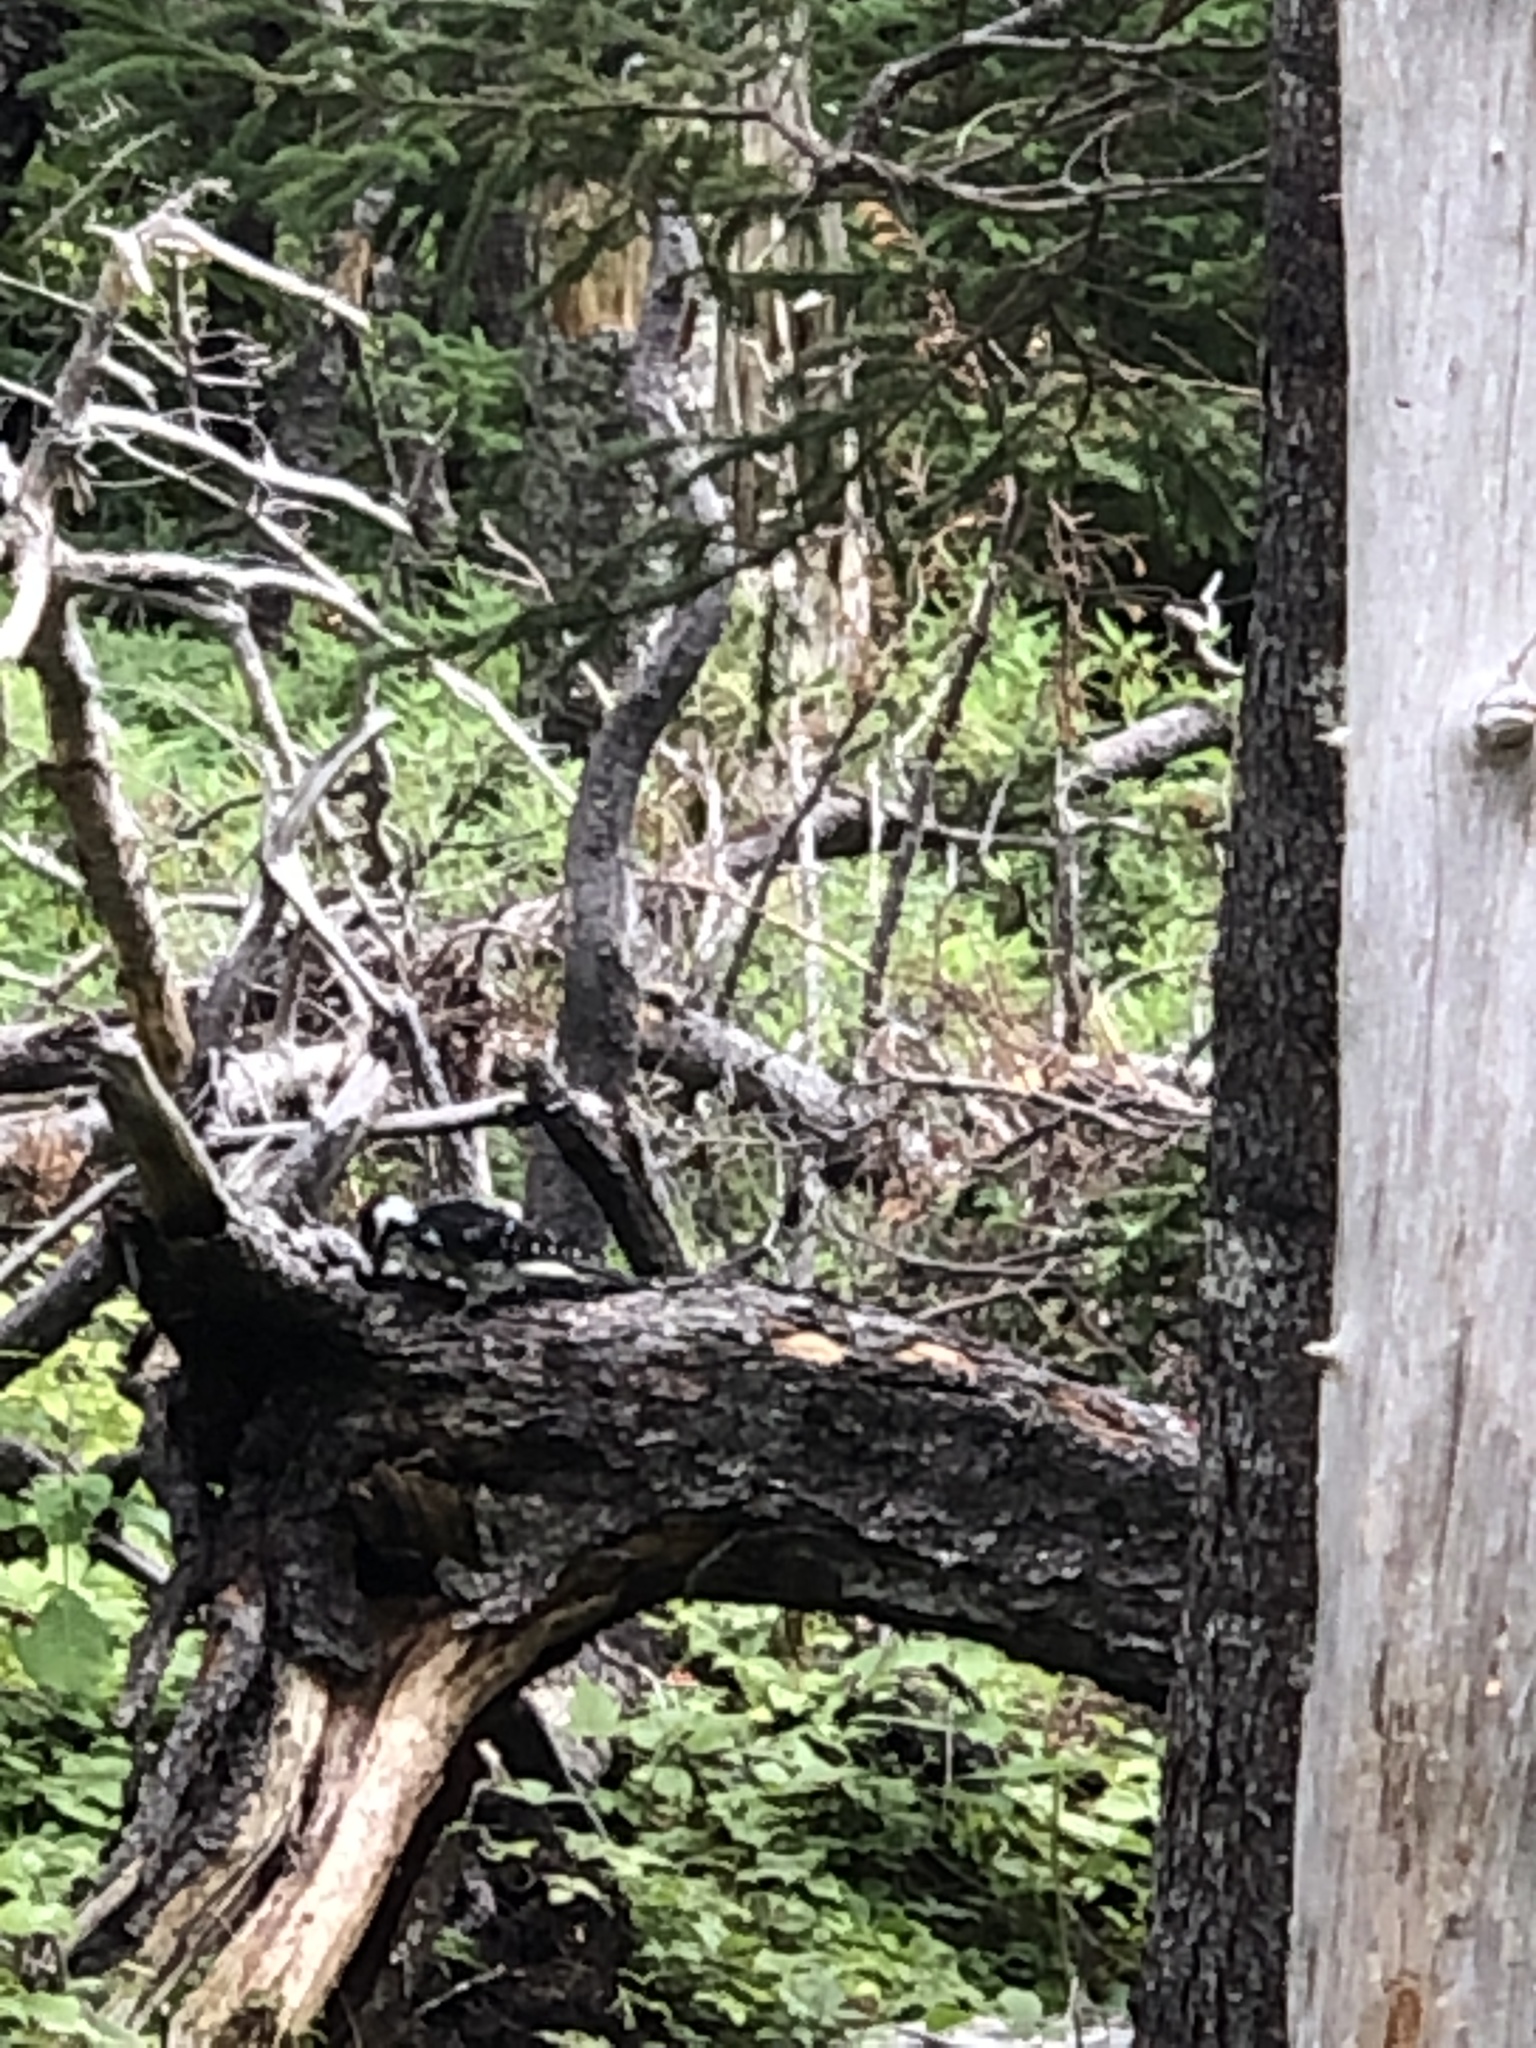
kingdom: Animalia
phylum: Chordata
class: Aves
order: Piciformes
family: Picidae
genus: Leuconotopicus
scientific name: Leuconotopicus villosus
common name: Hairy woodpecker
